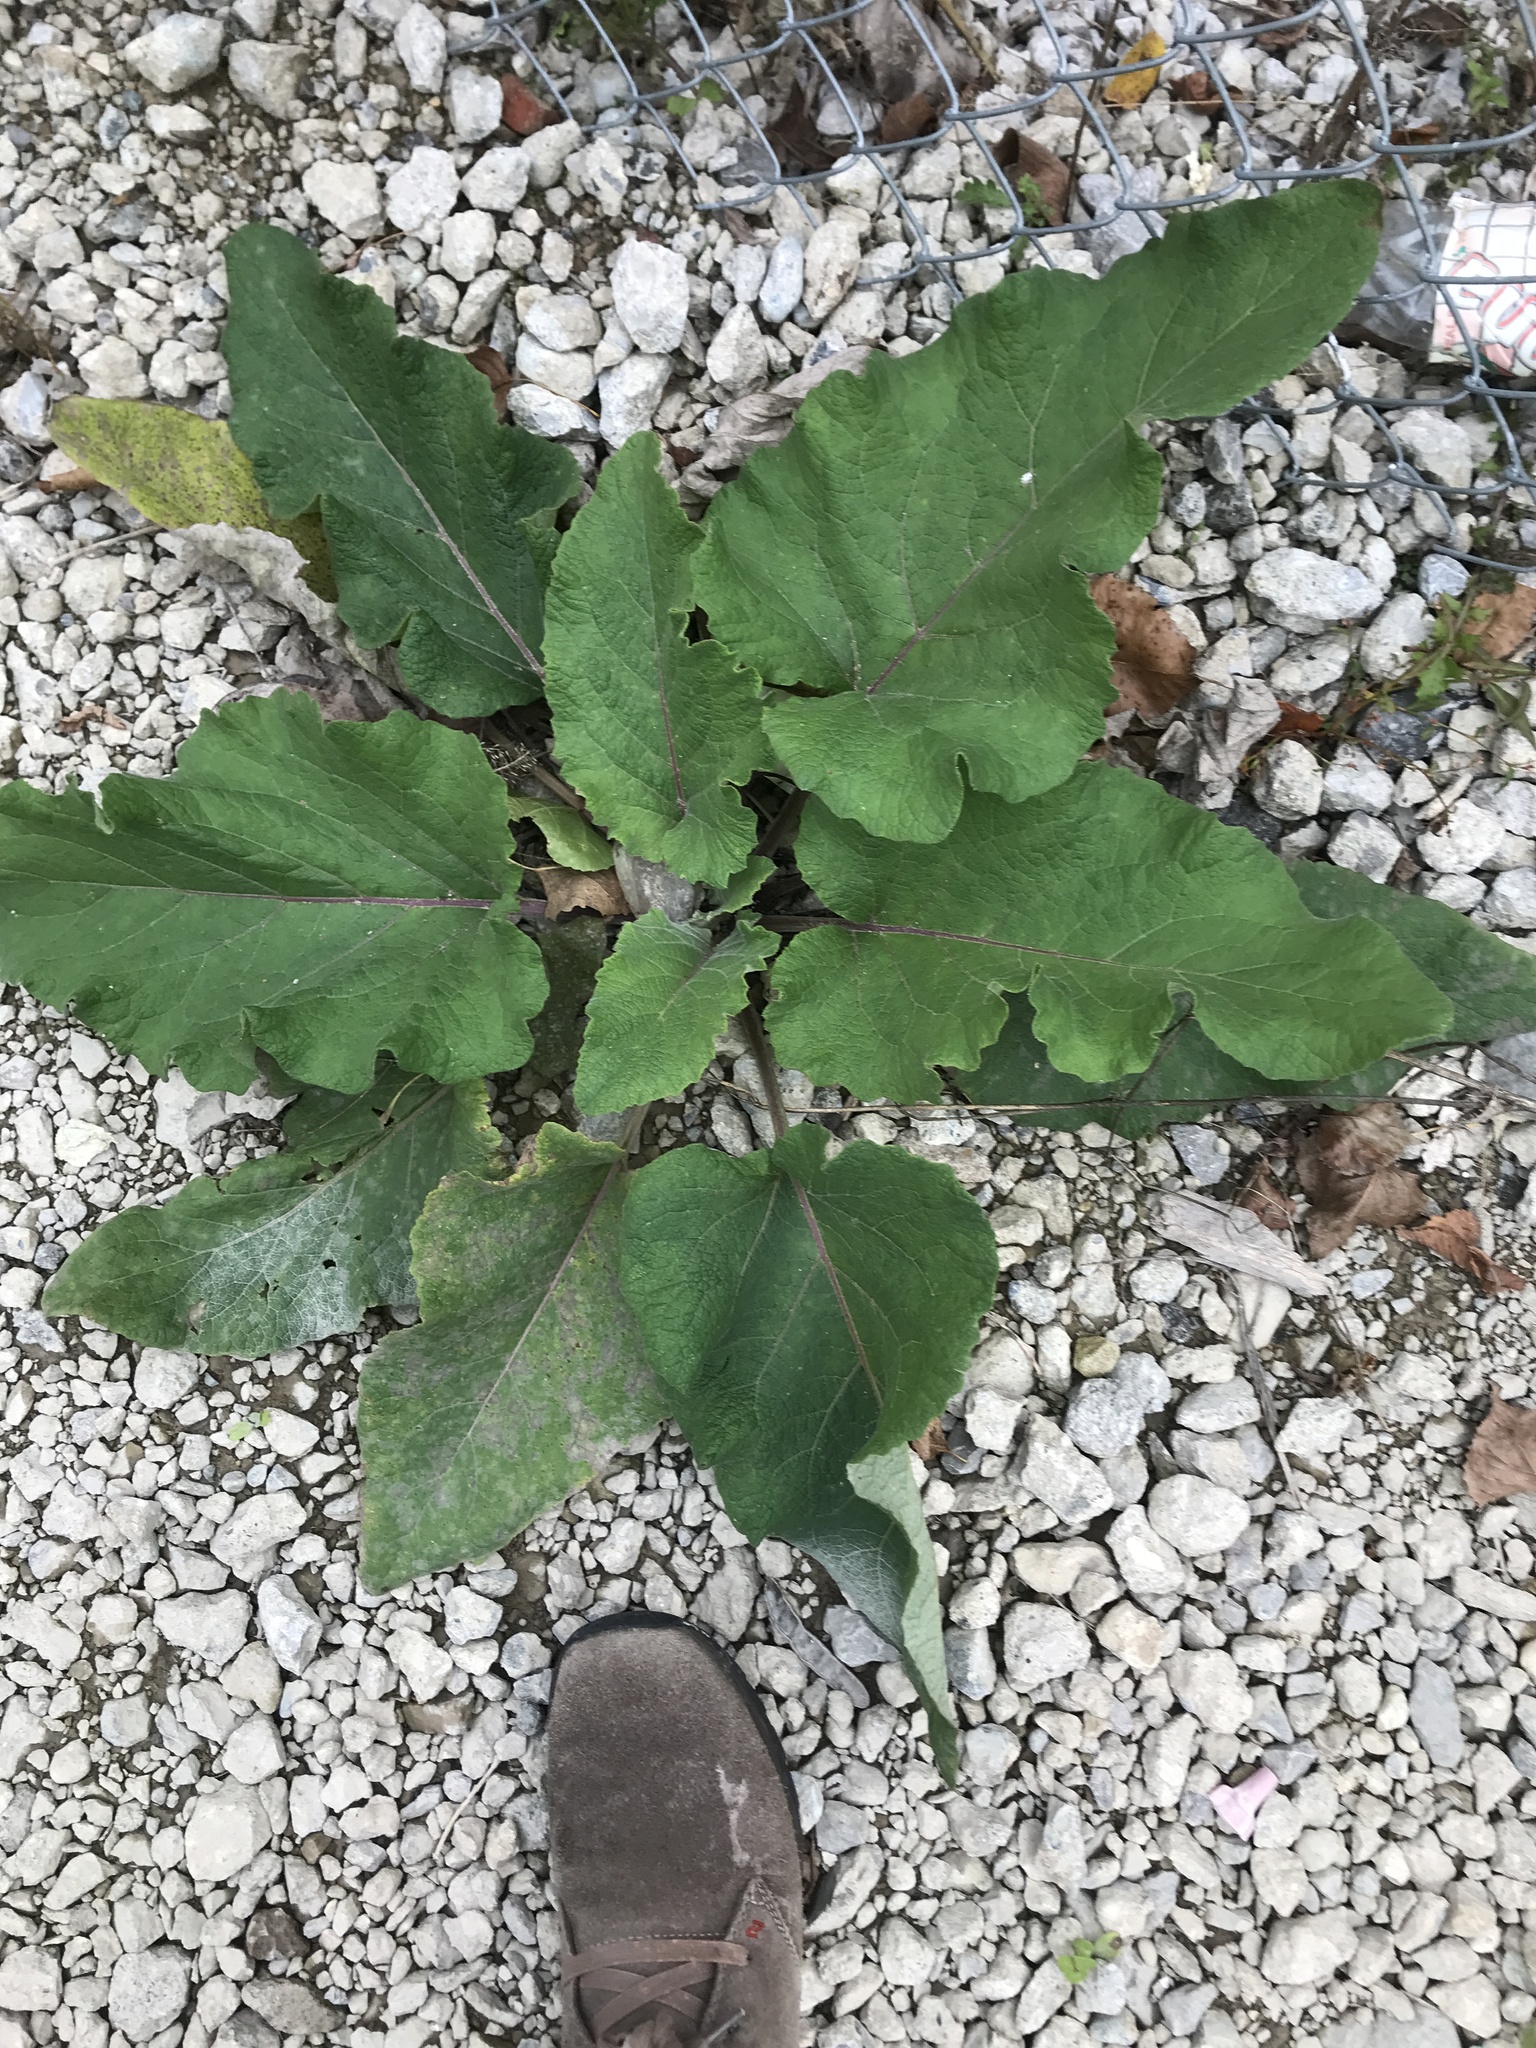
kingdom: Plantae
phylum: Tracheophyta
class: Magnoliopsida
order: Asterales
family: Asteraceae
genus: Arctium
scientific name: Arctium minus
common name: Lesser burdock
